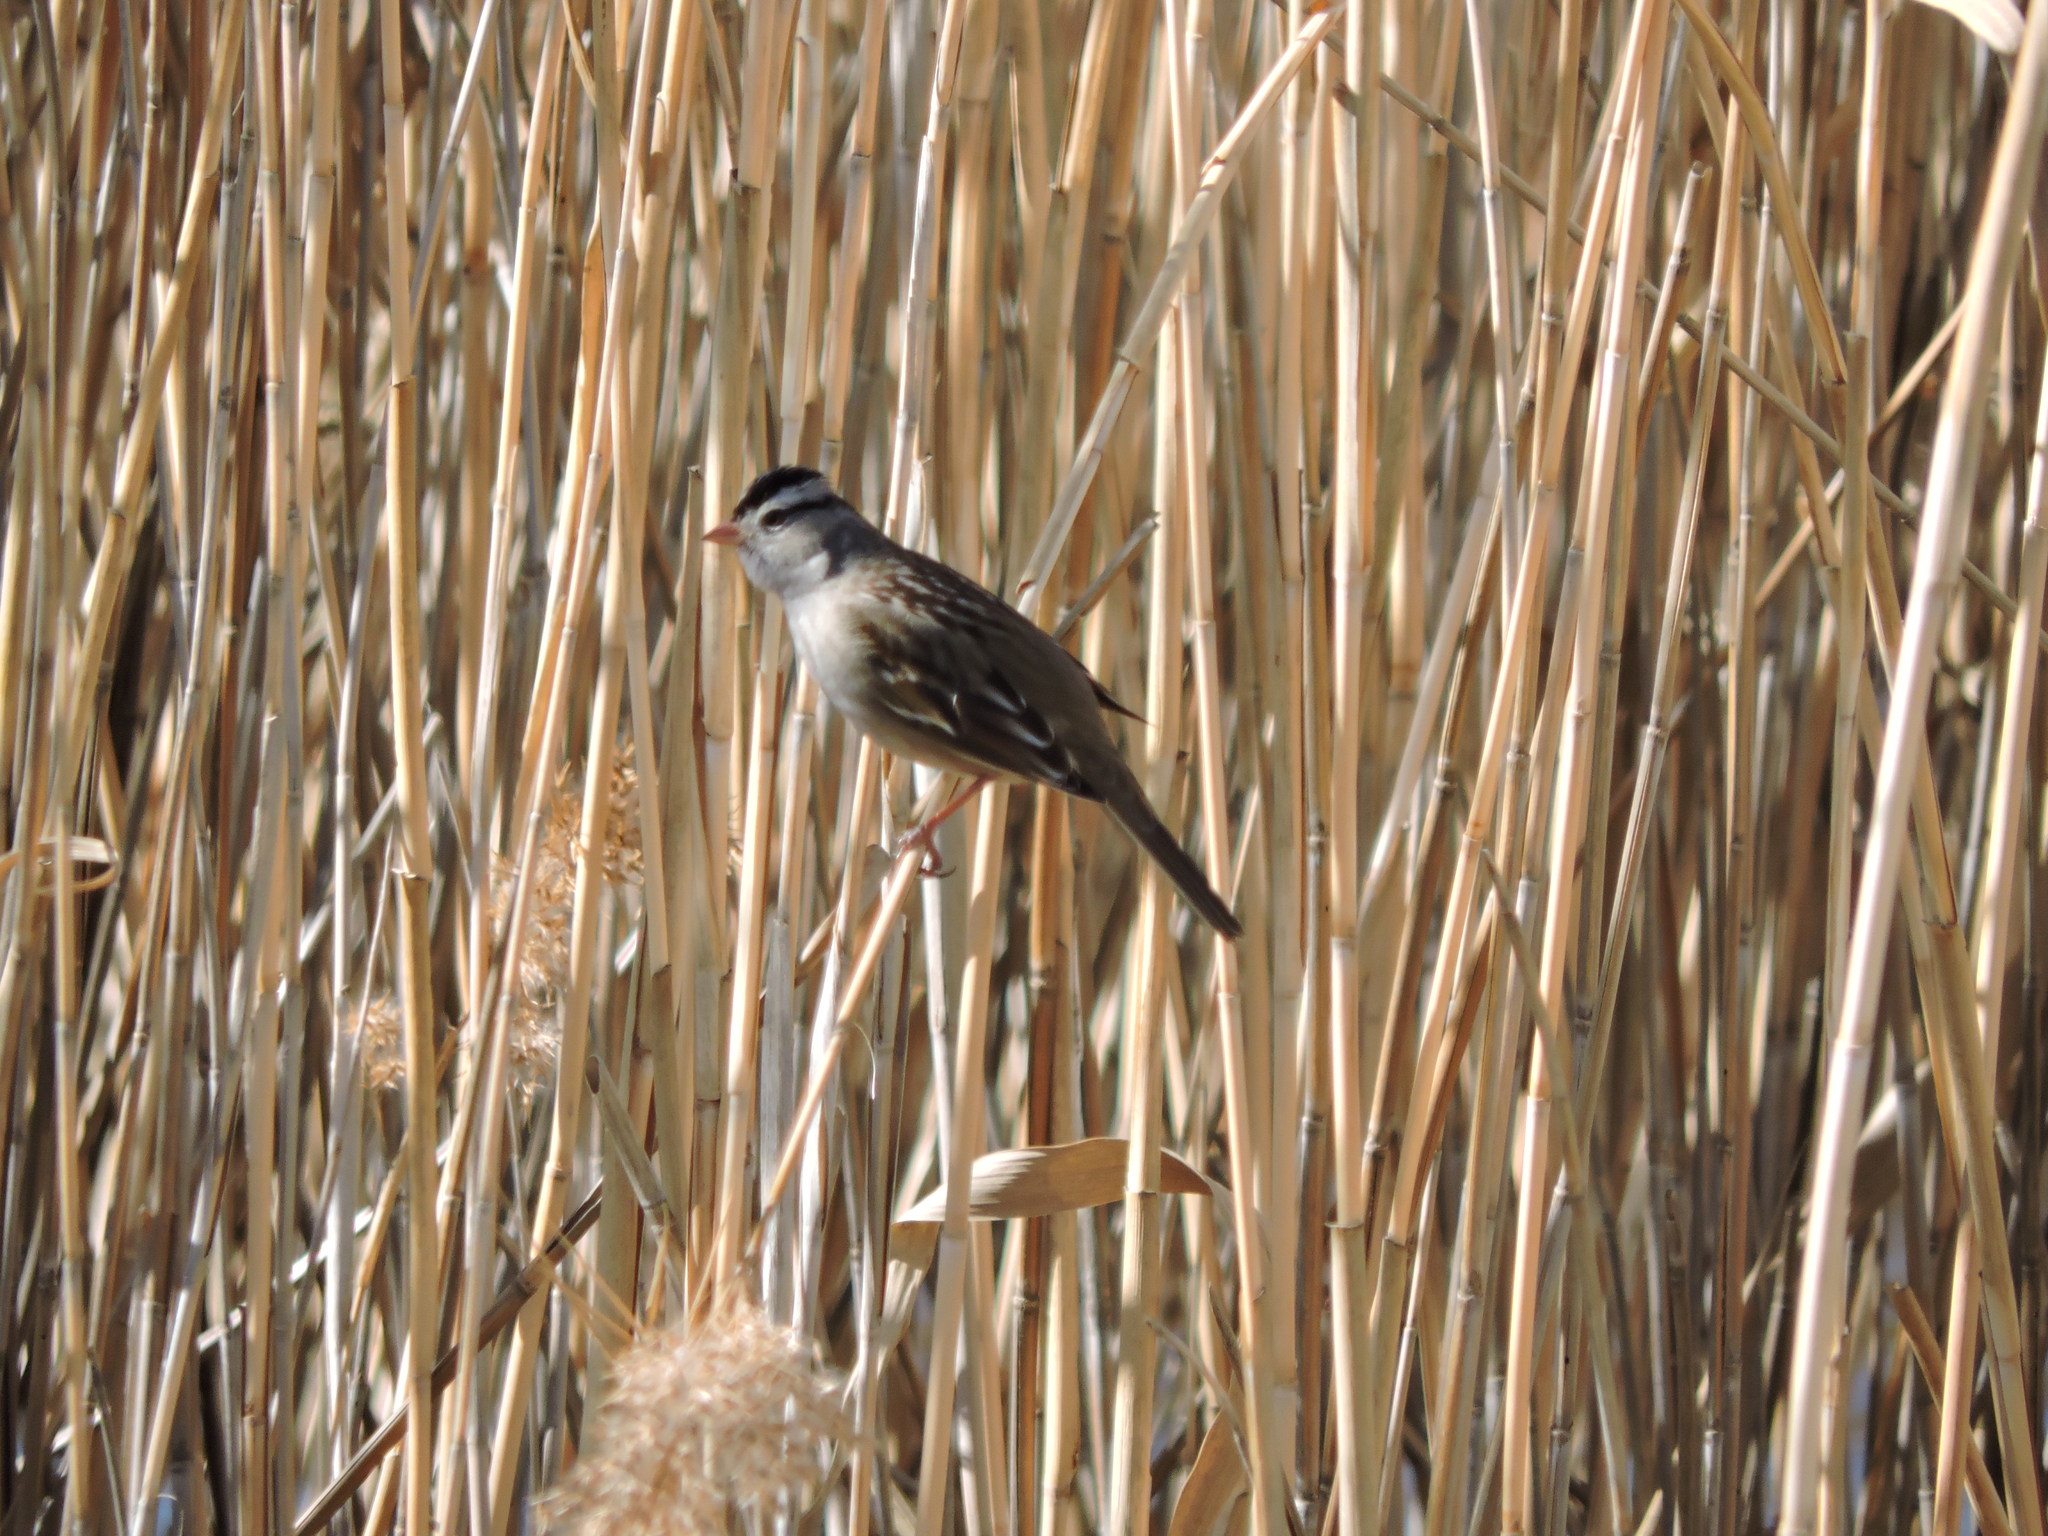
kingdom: Animalia
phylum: Chordata
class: Aves
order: Passeriformes
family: Passerellidae
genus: Zonotrichia
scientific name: Zonotrichia leucophrys
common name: White-crowned sparrow
